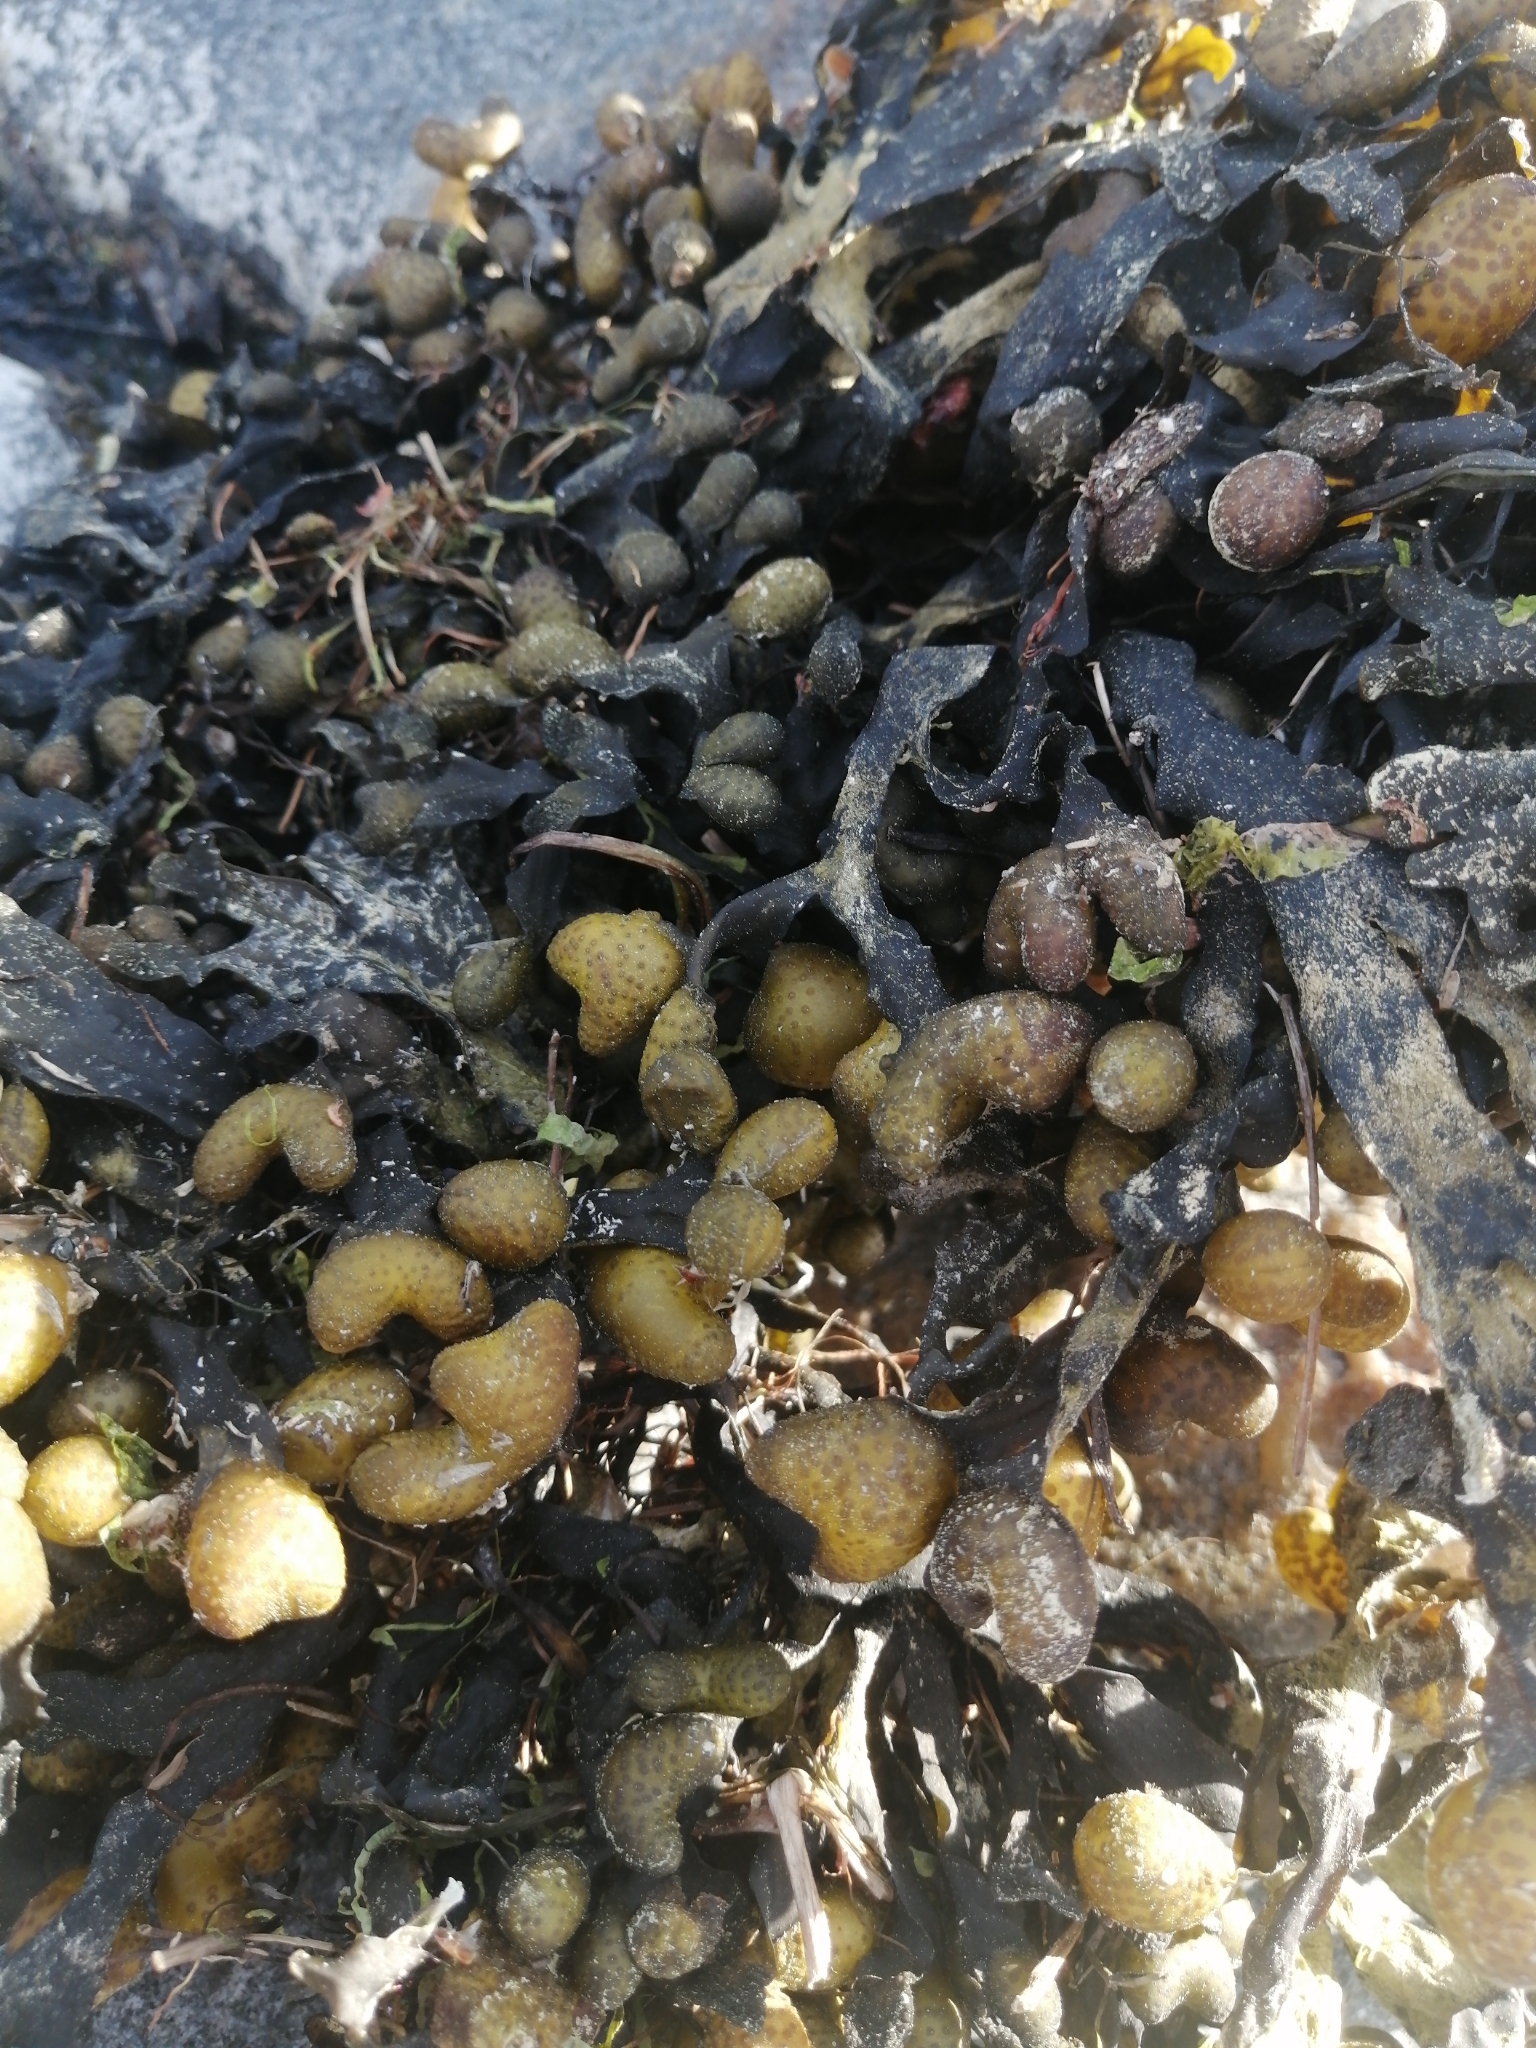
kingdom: Chromista
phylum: Ochrophyta
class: Phaeophyceae
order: Fucales
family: Fucaceae
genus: Fucus
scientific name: Fucus vesiculosus
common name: Bladder wrack
